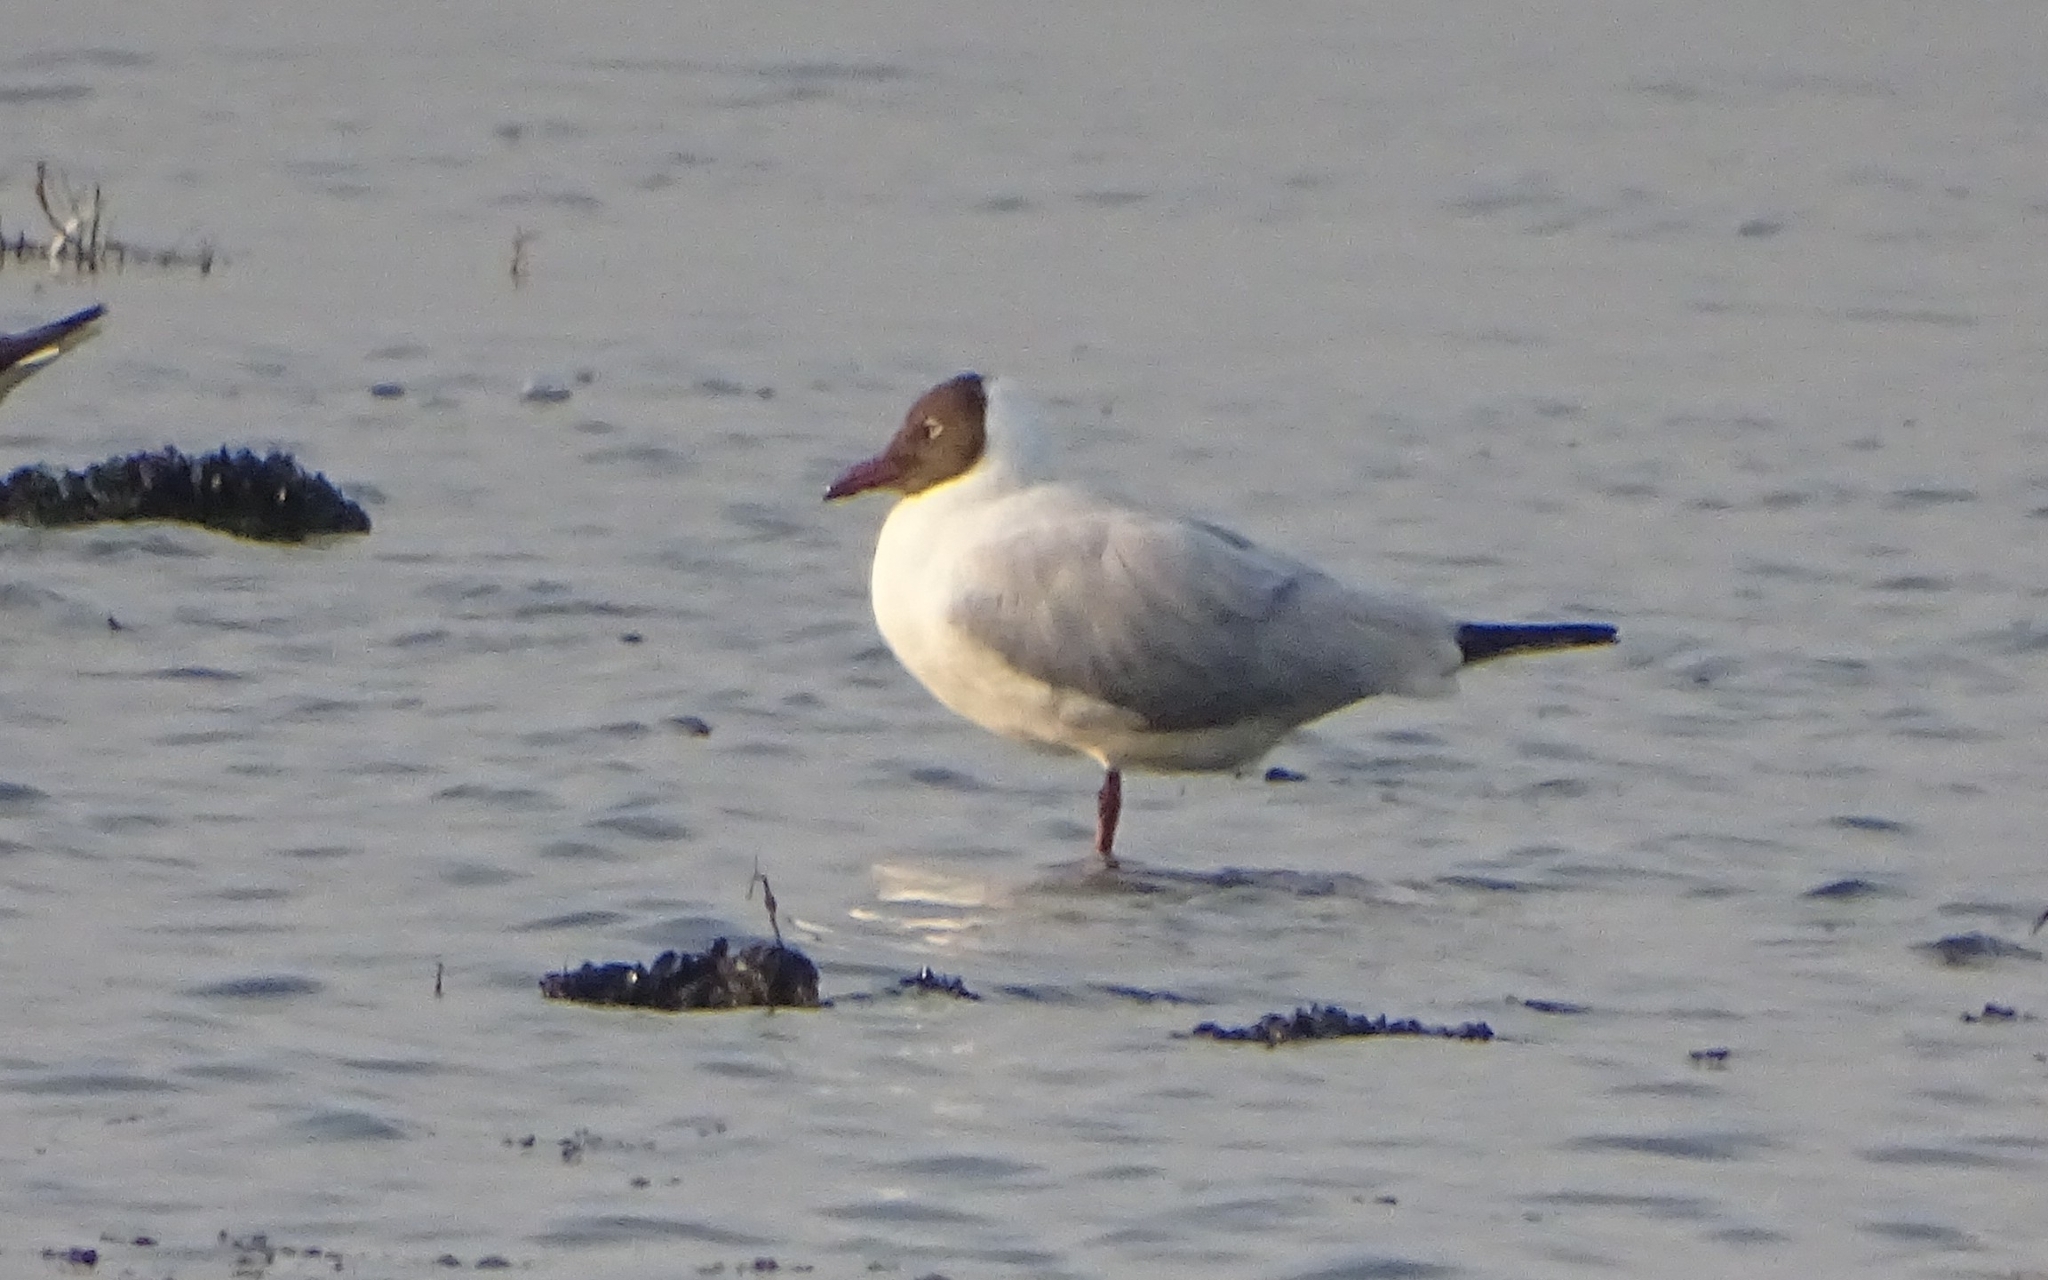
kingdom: Animalia
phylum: Chordata
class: Aves
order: Charadriiformes
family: Laridae
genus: Chroicocephalus
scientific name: Chroicocephalus brunnicephalus
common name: Brown-headed gull
